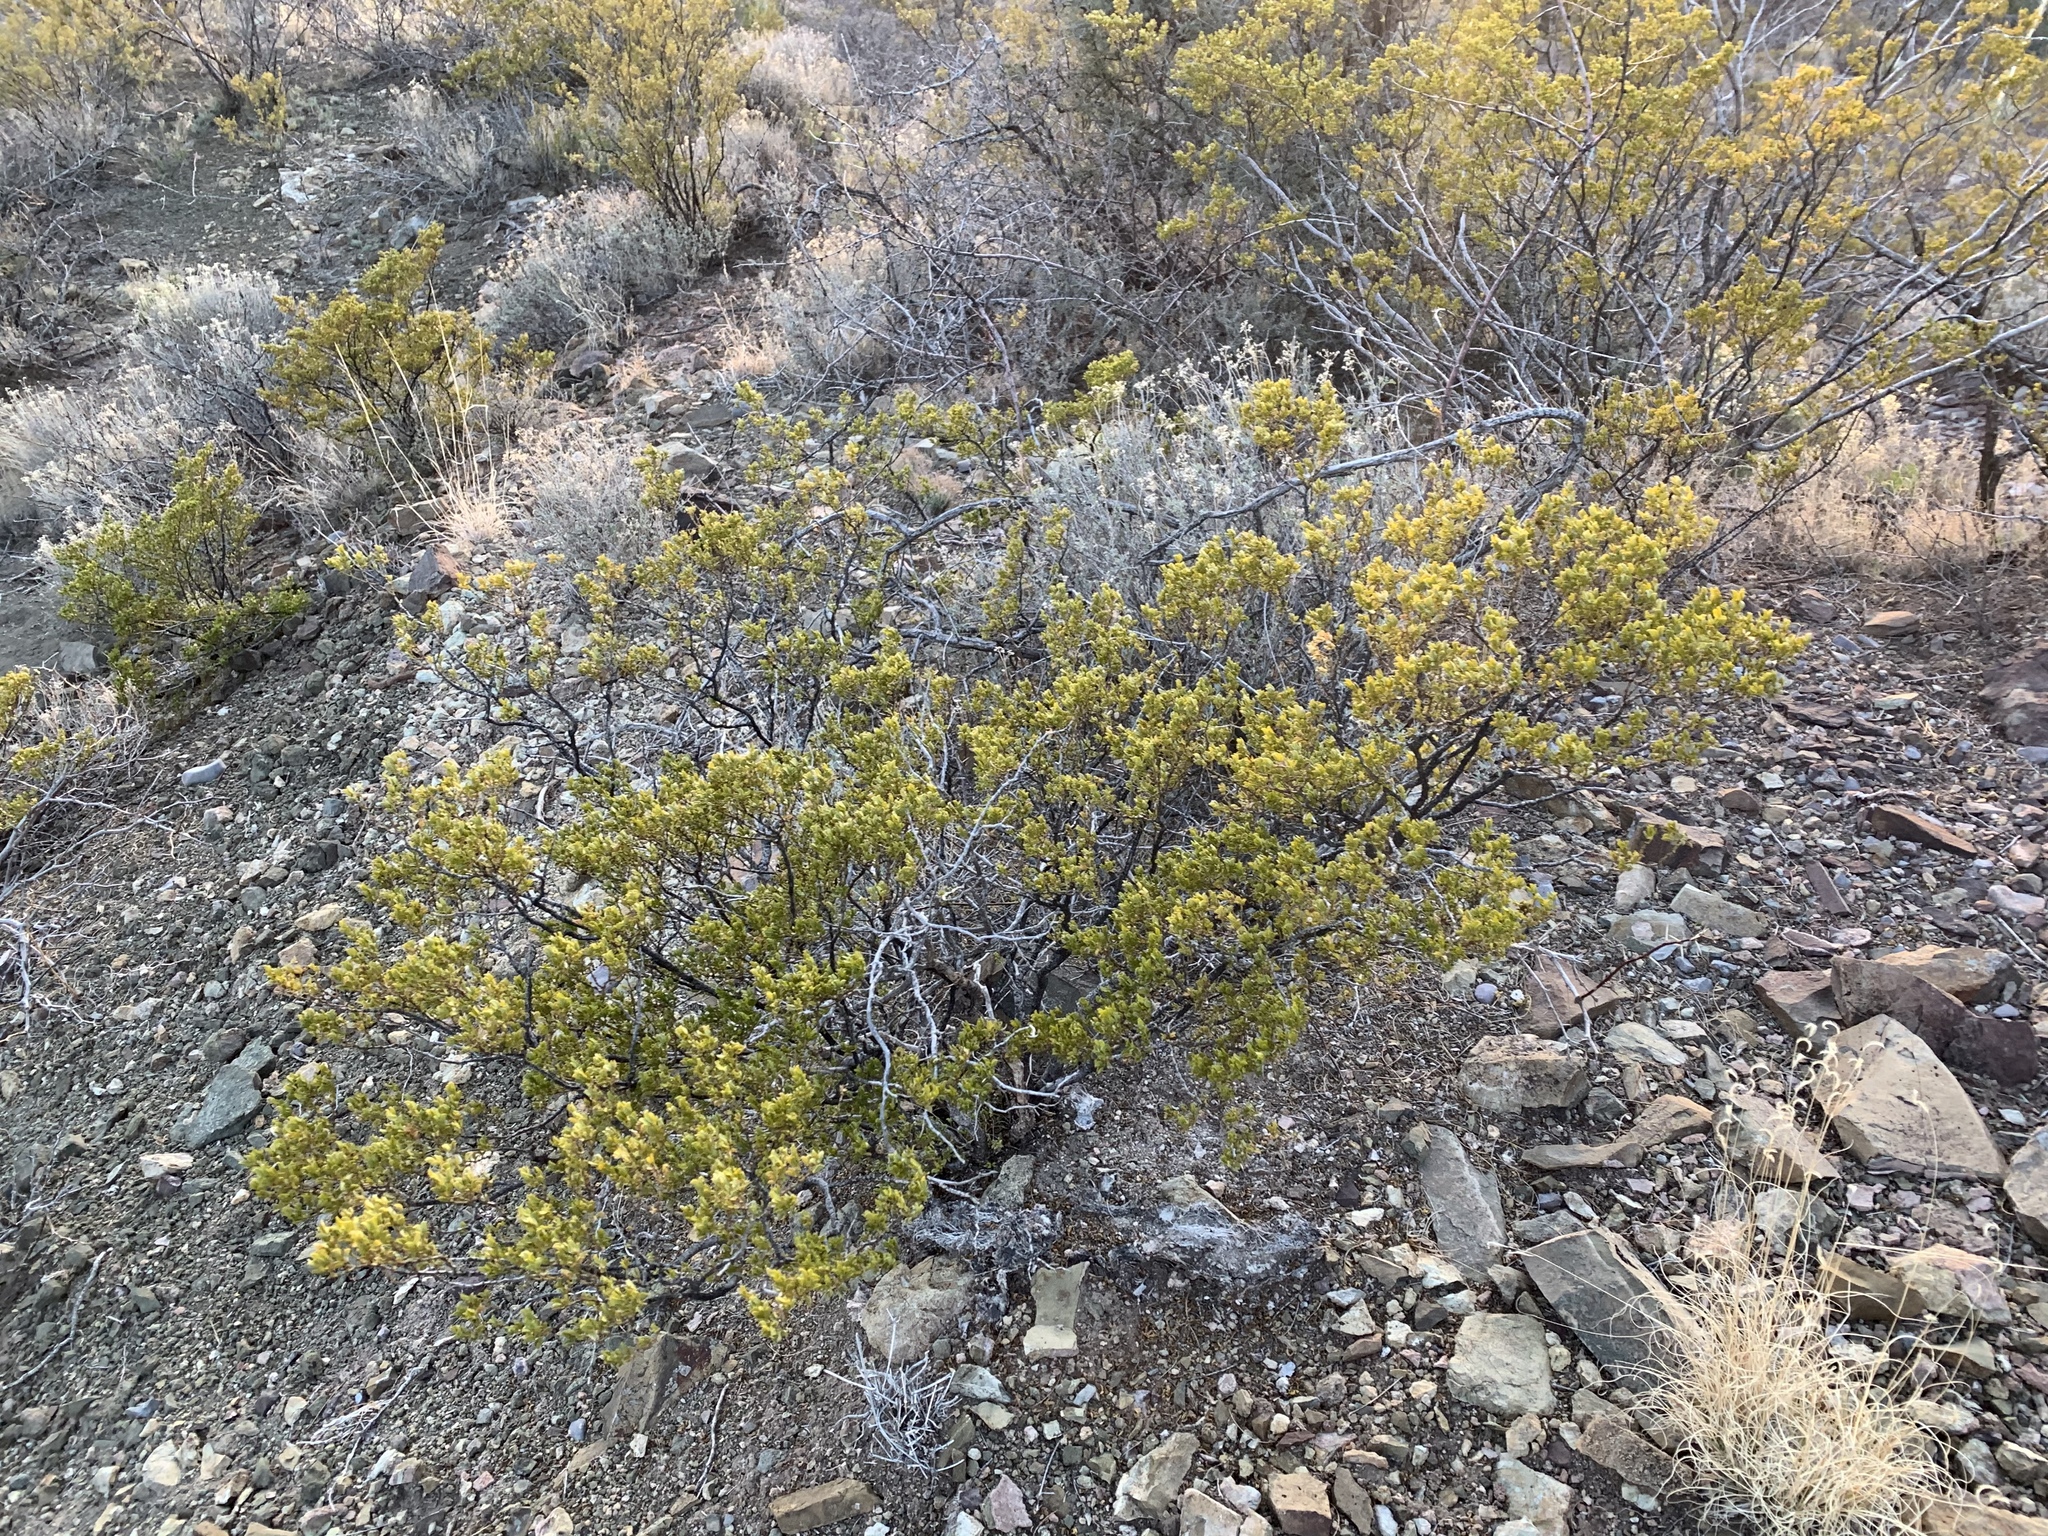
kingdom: Plantae
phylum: Tracheophyta
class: Magnoliopsida
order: Zygophyllales
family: Zygophyllaceae
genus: Larrea
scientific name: Larrea tridentata
